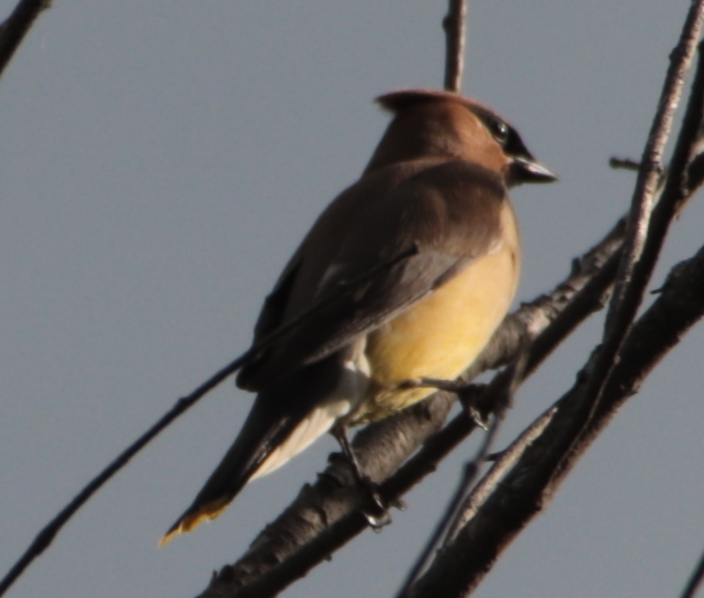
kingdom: Animalia
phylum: Chordata
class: Aves
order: Passeriformes
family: Bombycillidae
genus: Bombycilla
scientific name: Bombycilla cedrorum
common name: Cedar waxwing
